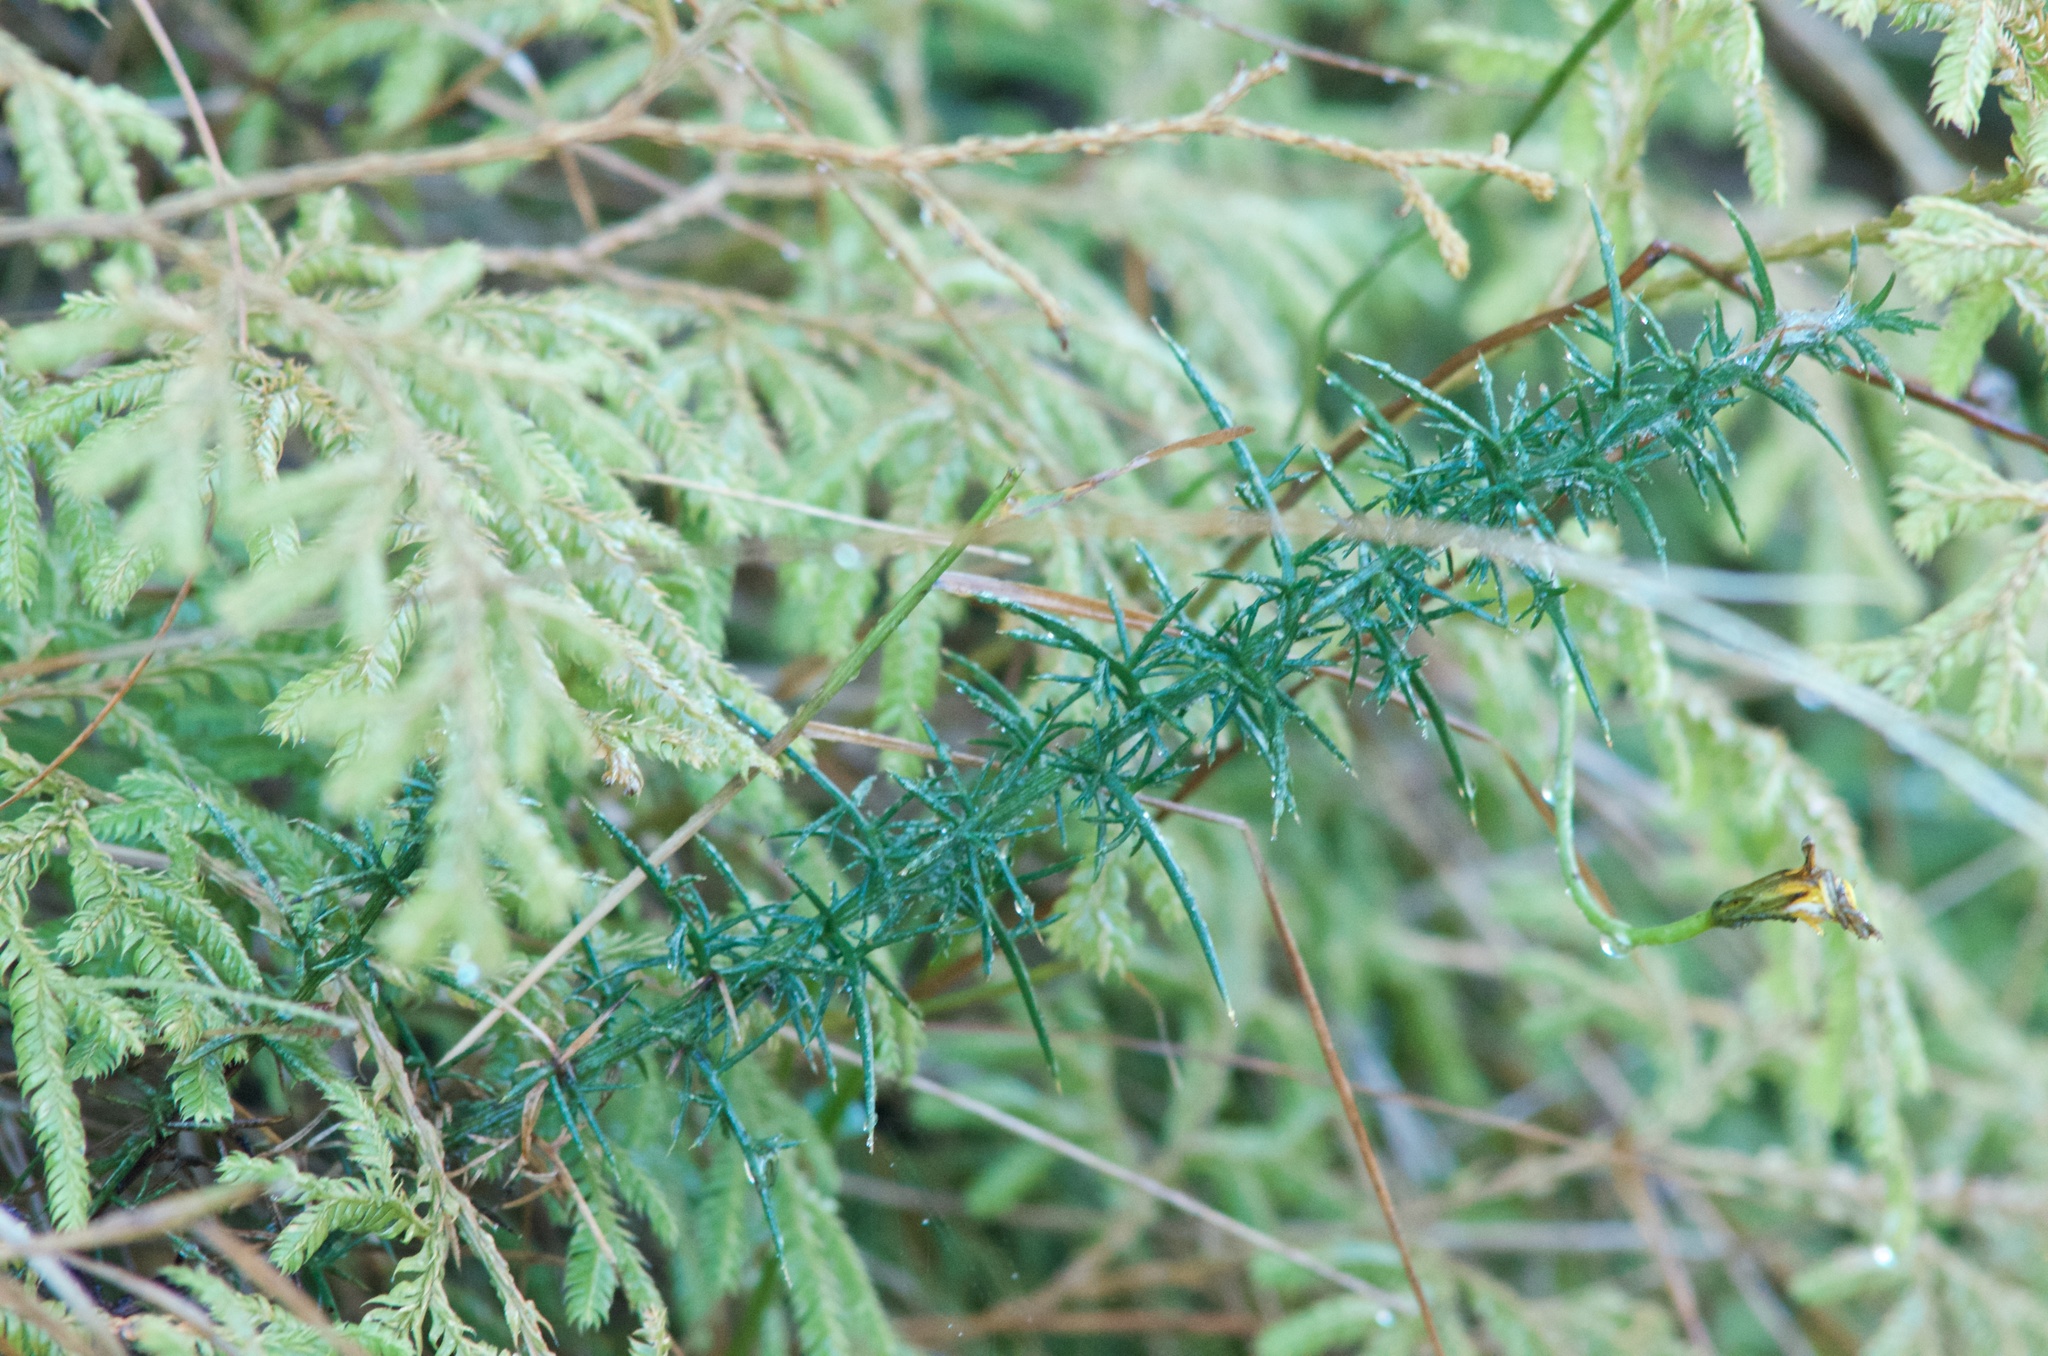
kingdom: Plantae
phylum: Tracheophyta
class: Magnoliopsida
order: Fabales
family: Fabaceae
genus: Ulex
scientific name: Ulex europaeus
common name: Common gorse
